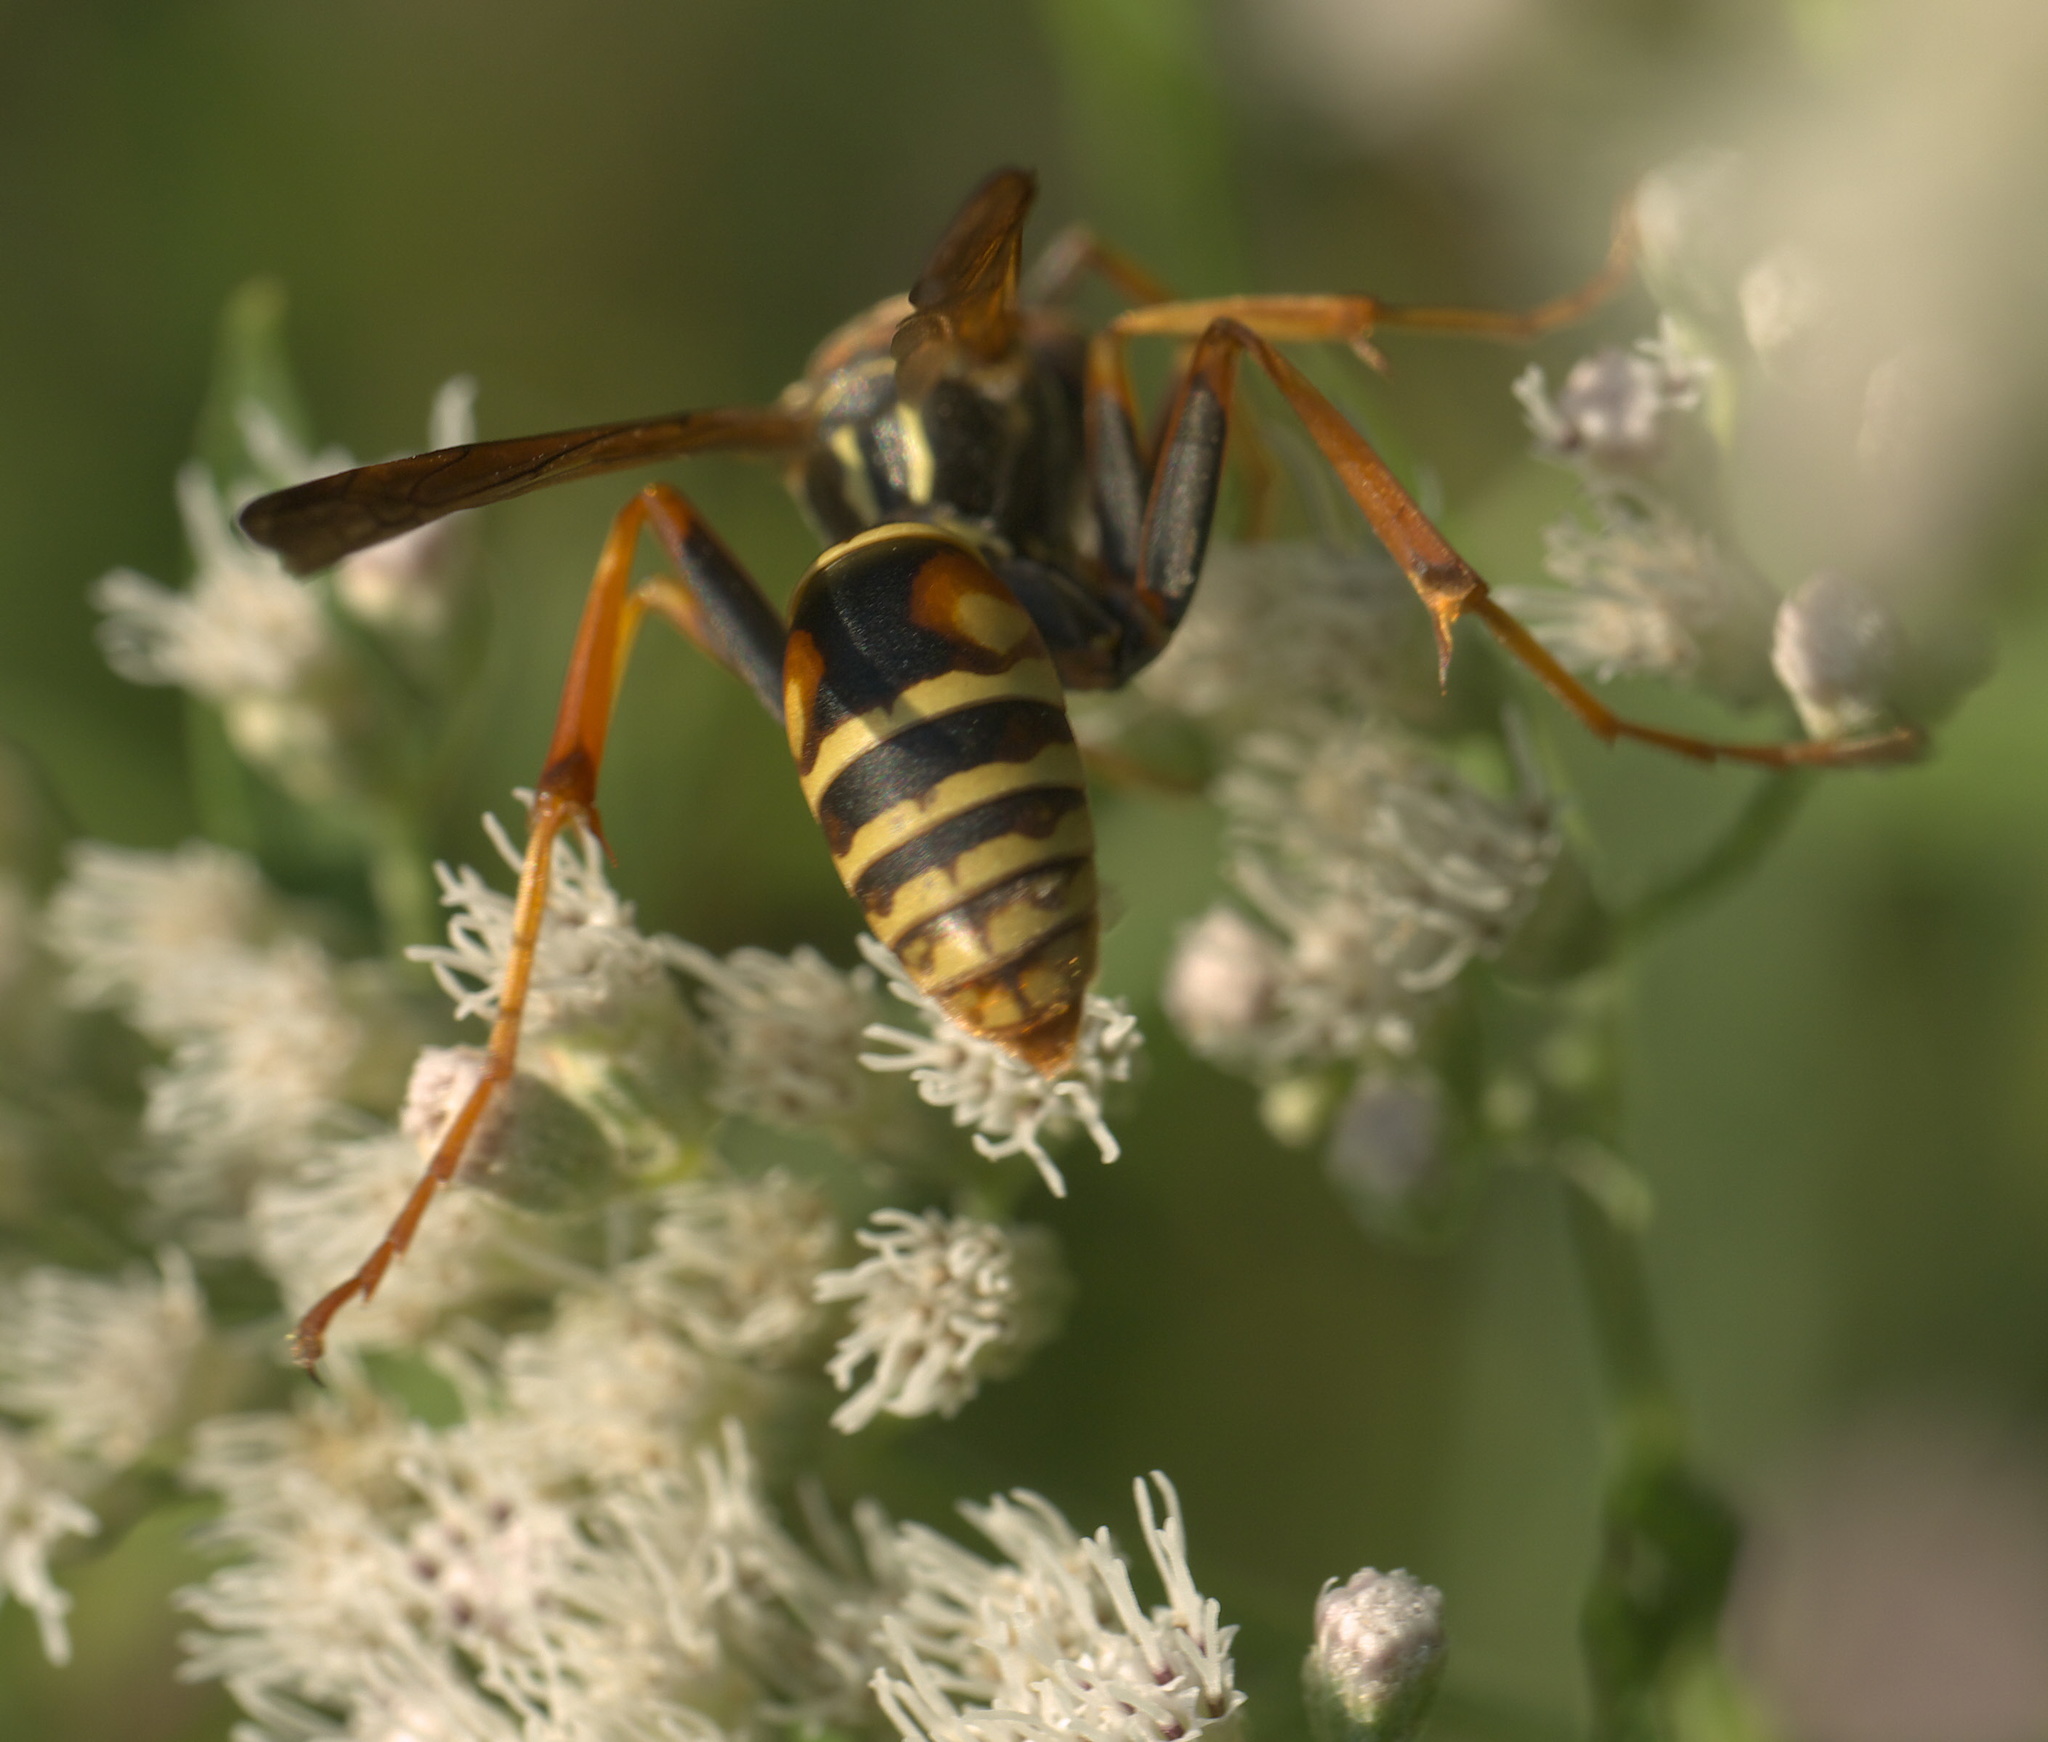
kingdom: Animalia
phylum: Arthropoda
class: Insecta
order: Hymenoptera
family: Eumenidae
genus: Polistes
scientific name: Polistes fuscatus
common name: Dark paper wasp
